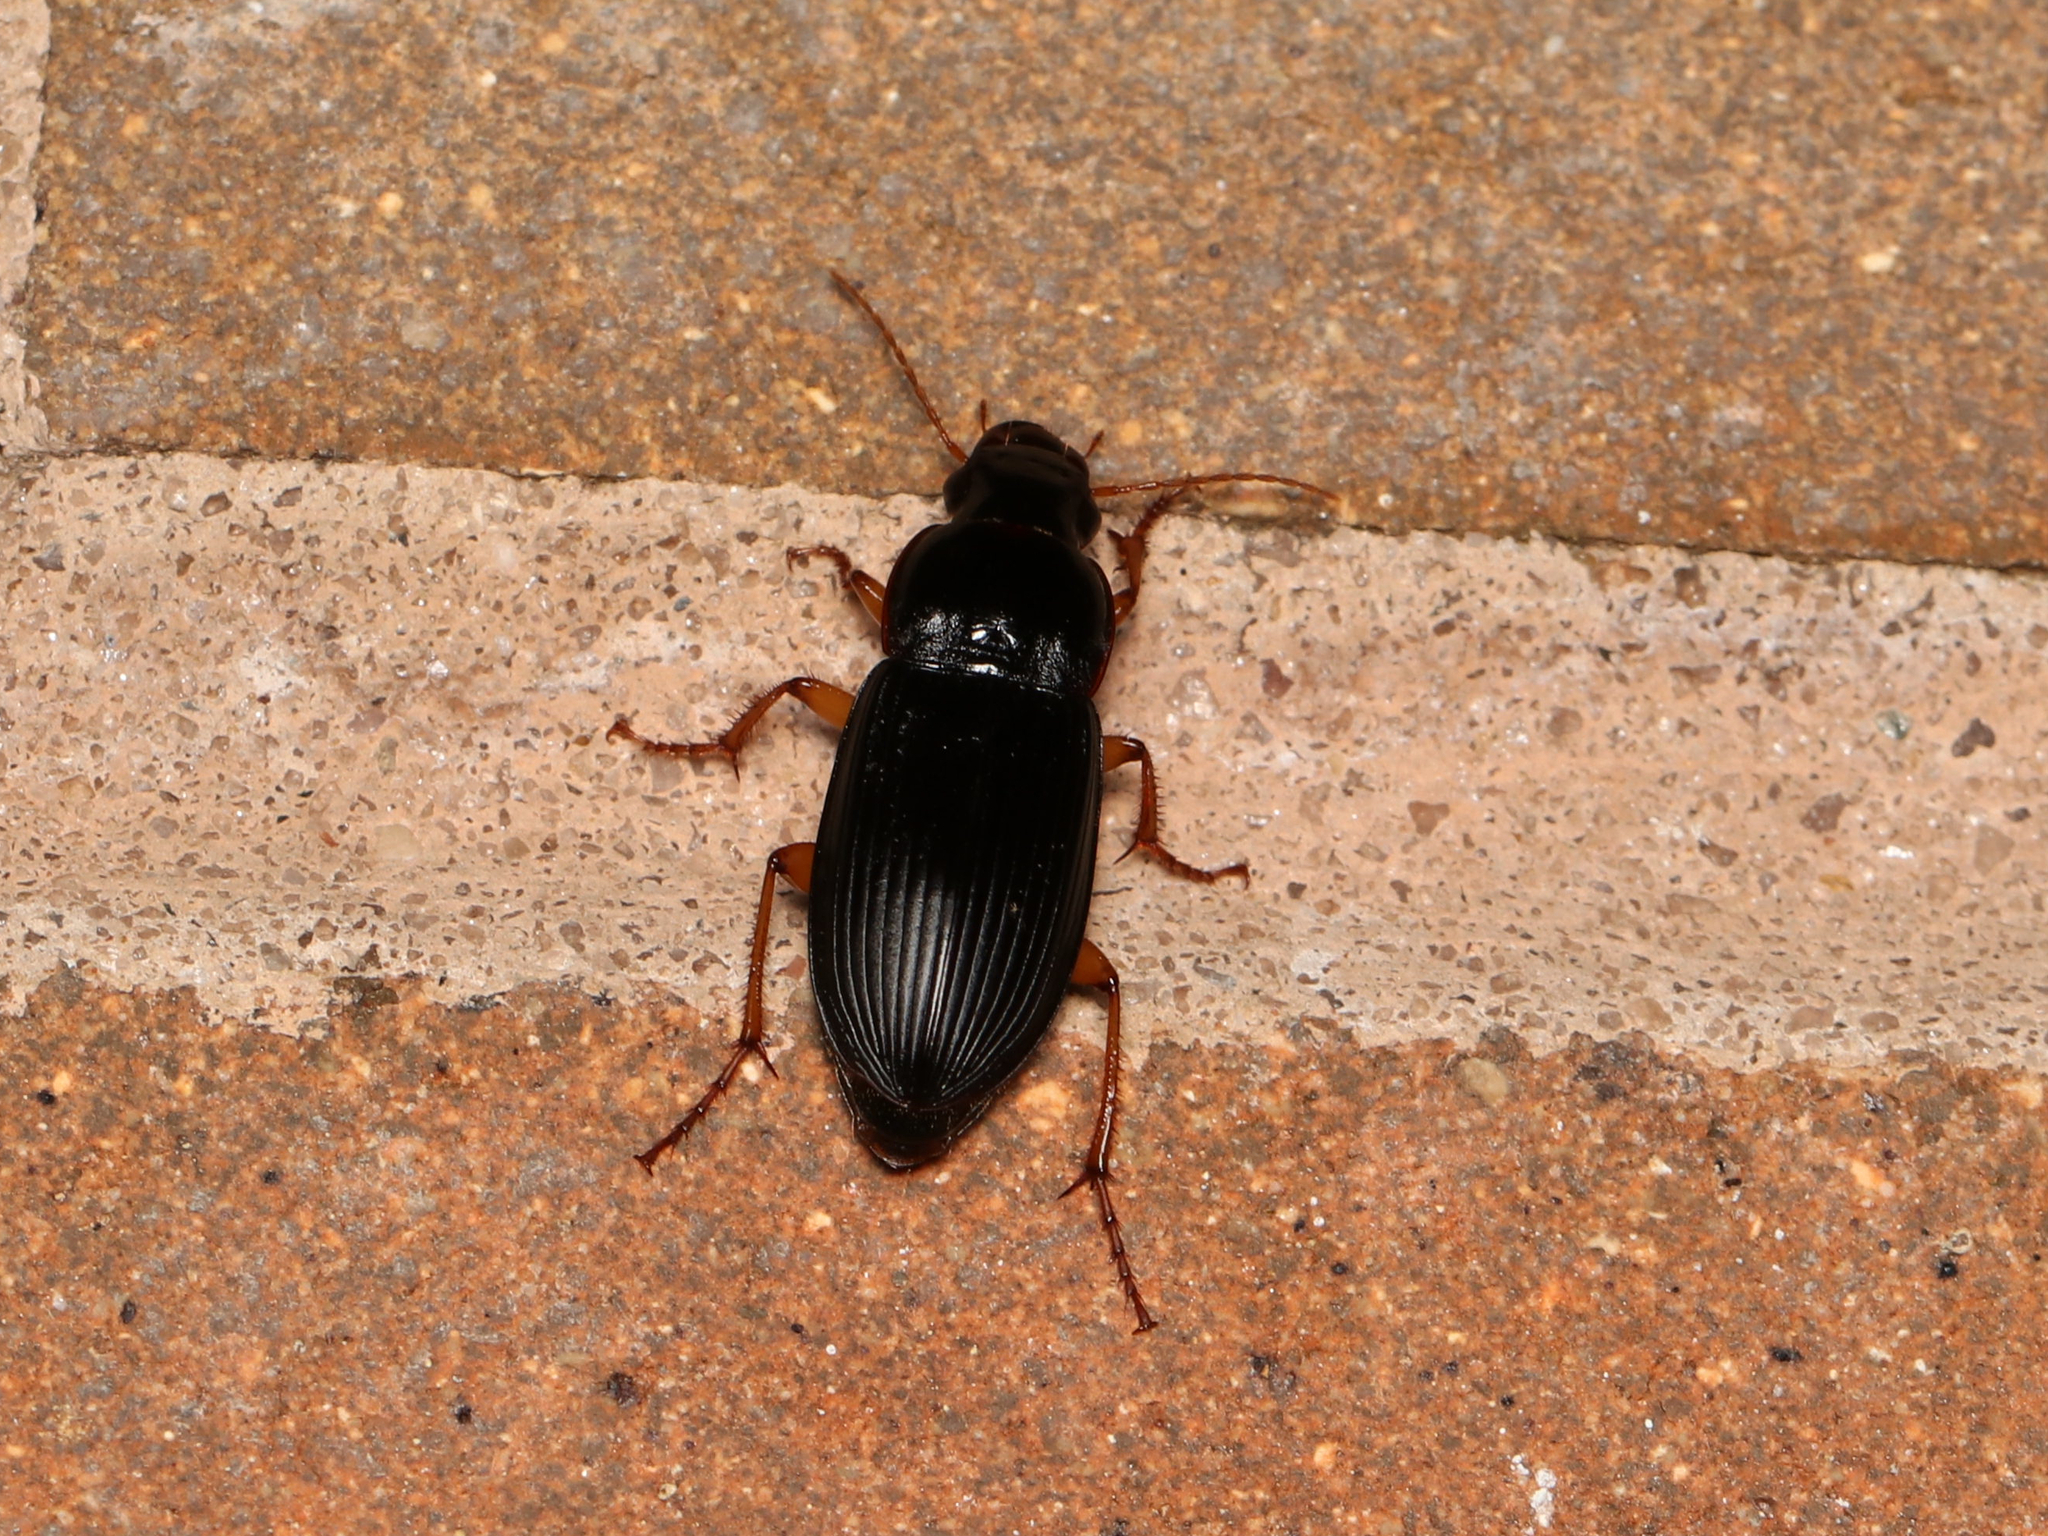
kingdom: Animalia
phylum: Arthropoda
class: Insecta
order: Coleoptera
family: Carabidae
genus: Harpalus
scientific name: Harpalus pensylvanicus
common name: Pennsylvania dingy ground beetle
